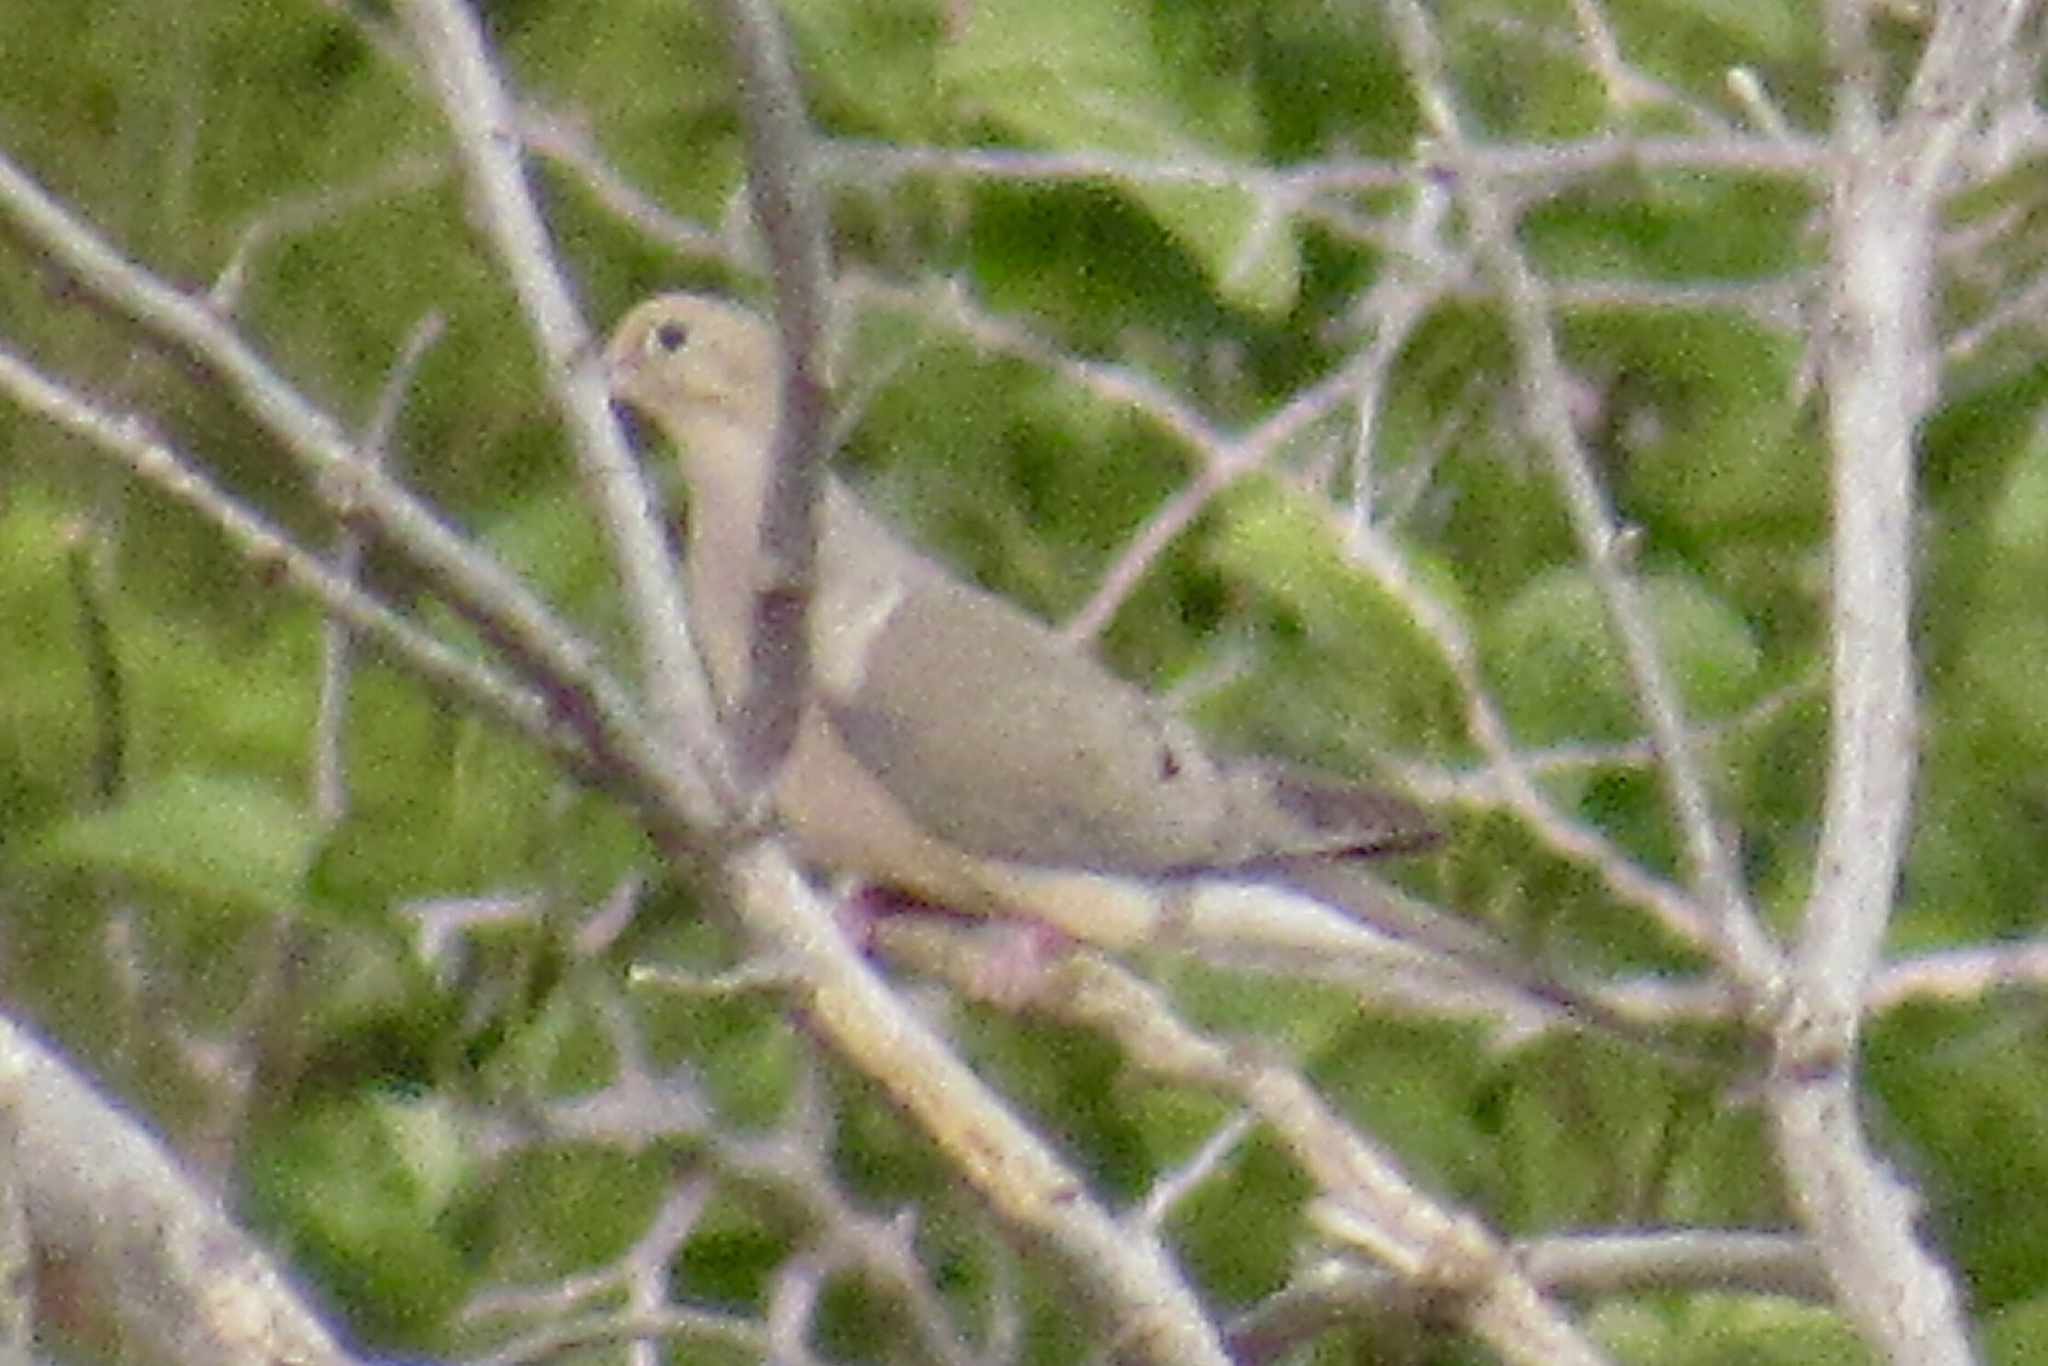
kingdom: Animalia
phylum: Chordata
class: Aves
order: Columbiformes
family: Columbidae
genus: Zenaida
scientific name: Zenaida macroura
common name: Mourning dove
